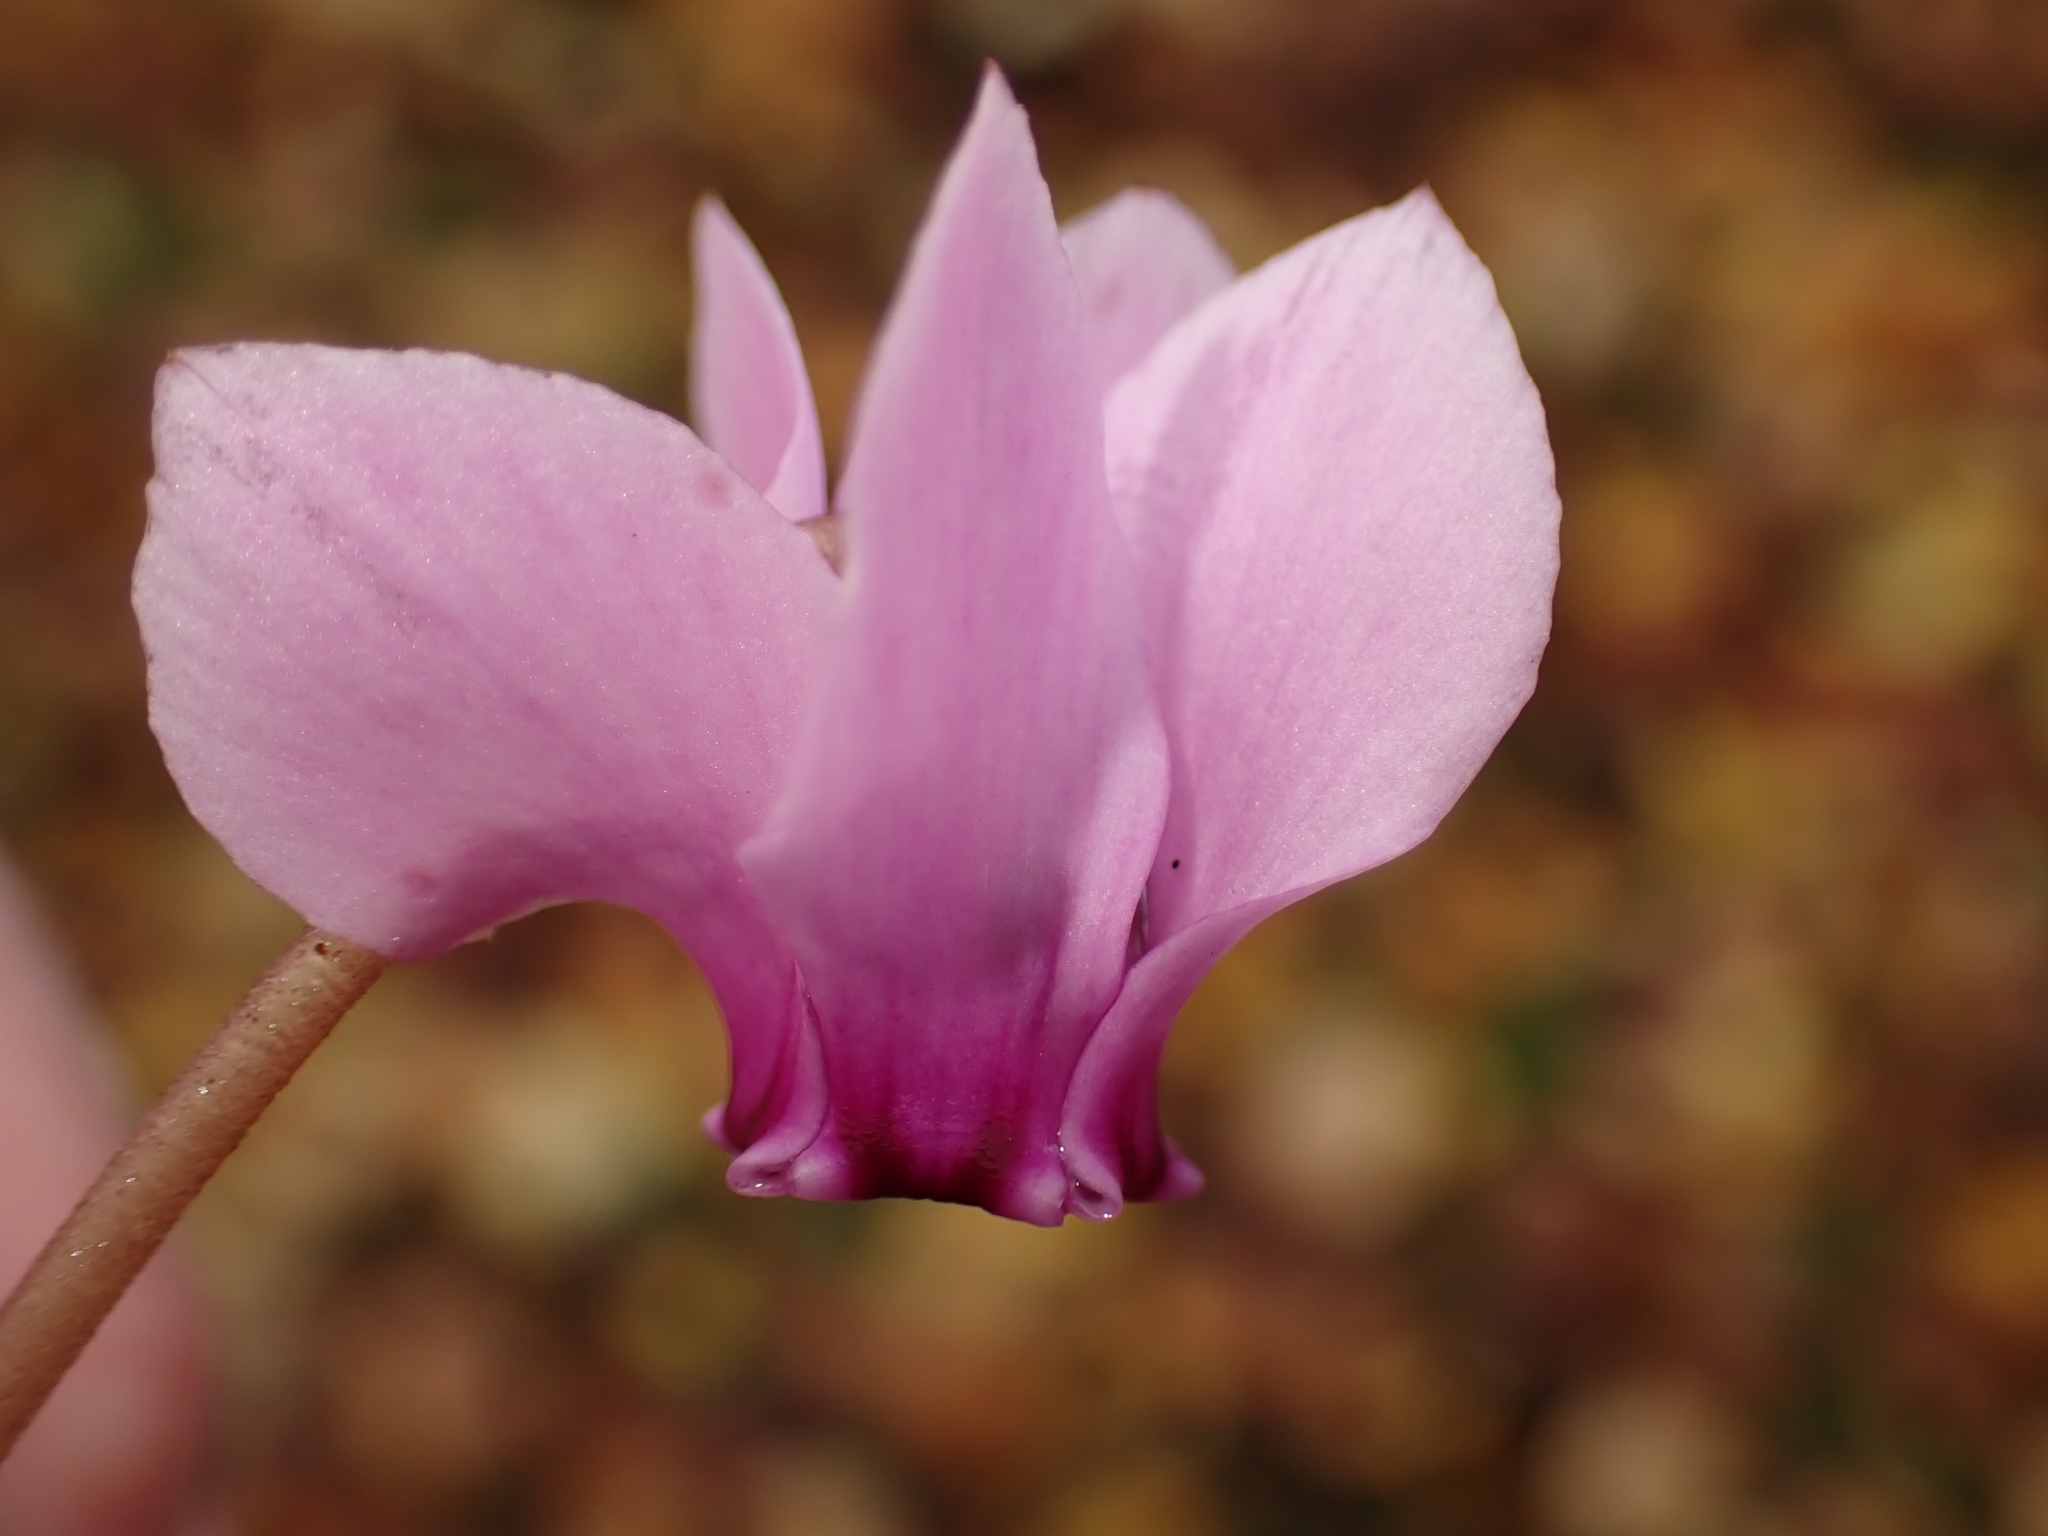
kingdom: Plantae
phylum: Tracheophyta
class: Magnoliopsida
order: Ericales
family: Primulaceae
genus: Cyclamen
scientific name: Cyclamen hederifolium
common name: Sowbread
